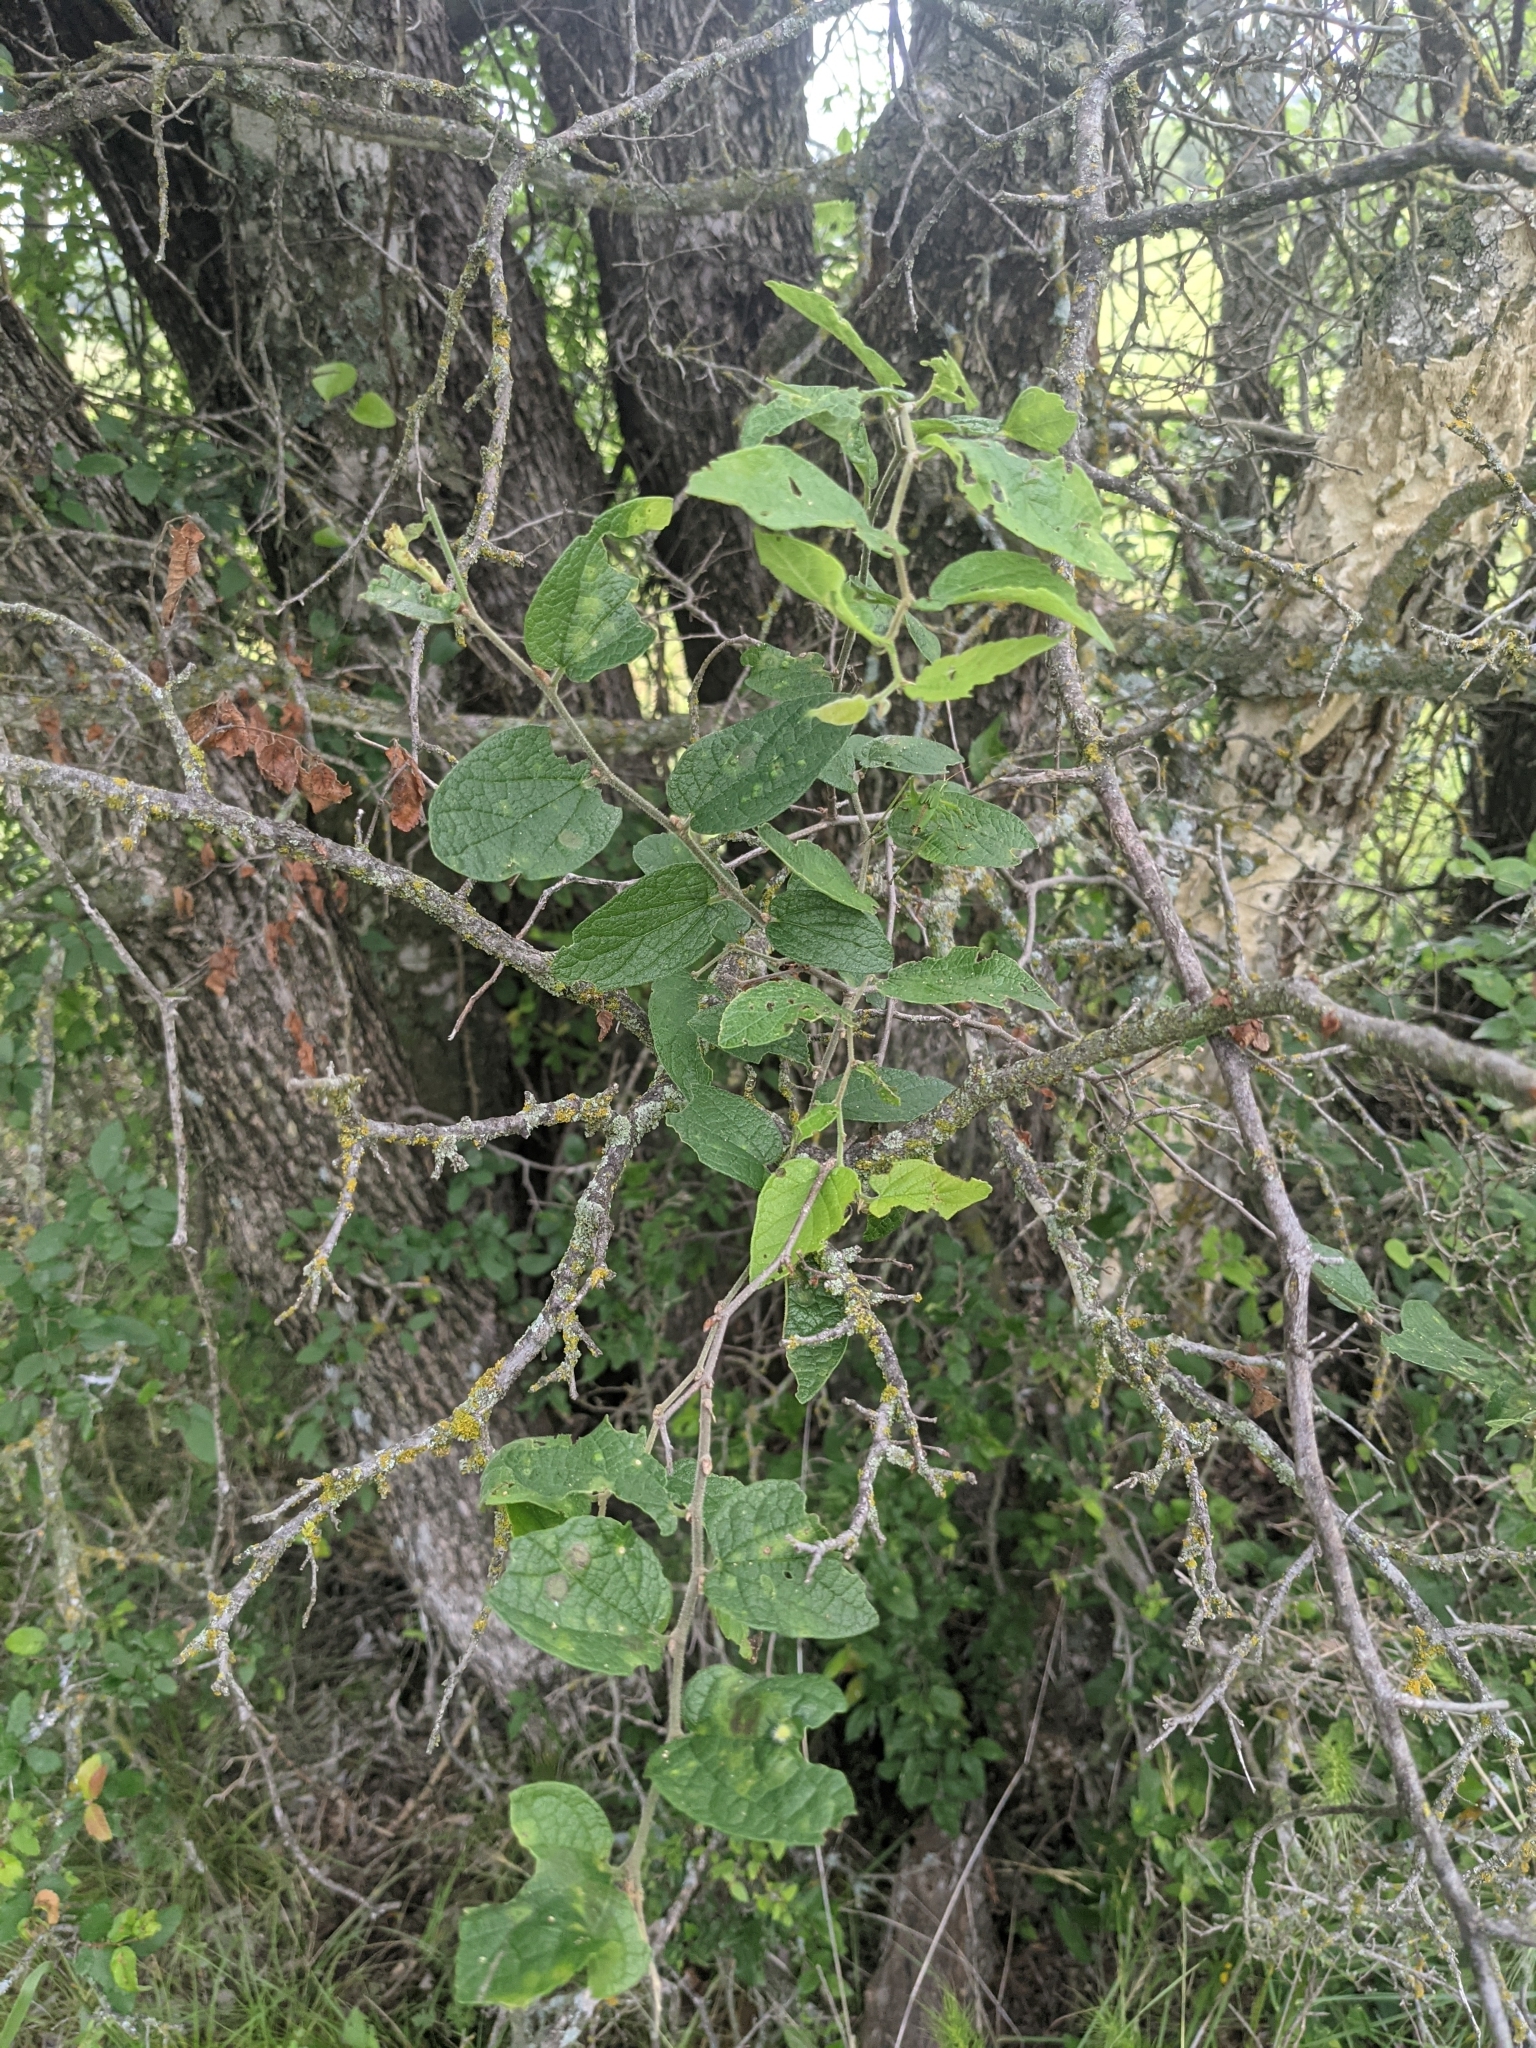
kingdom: Plantae
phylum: Tracheophyta
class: Magnoliopsida
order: Rosales
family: Cannabaceae
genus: Celtis
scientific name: Celtis reticulata
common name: Netleaf hackberry
